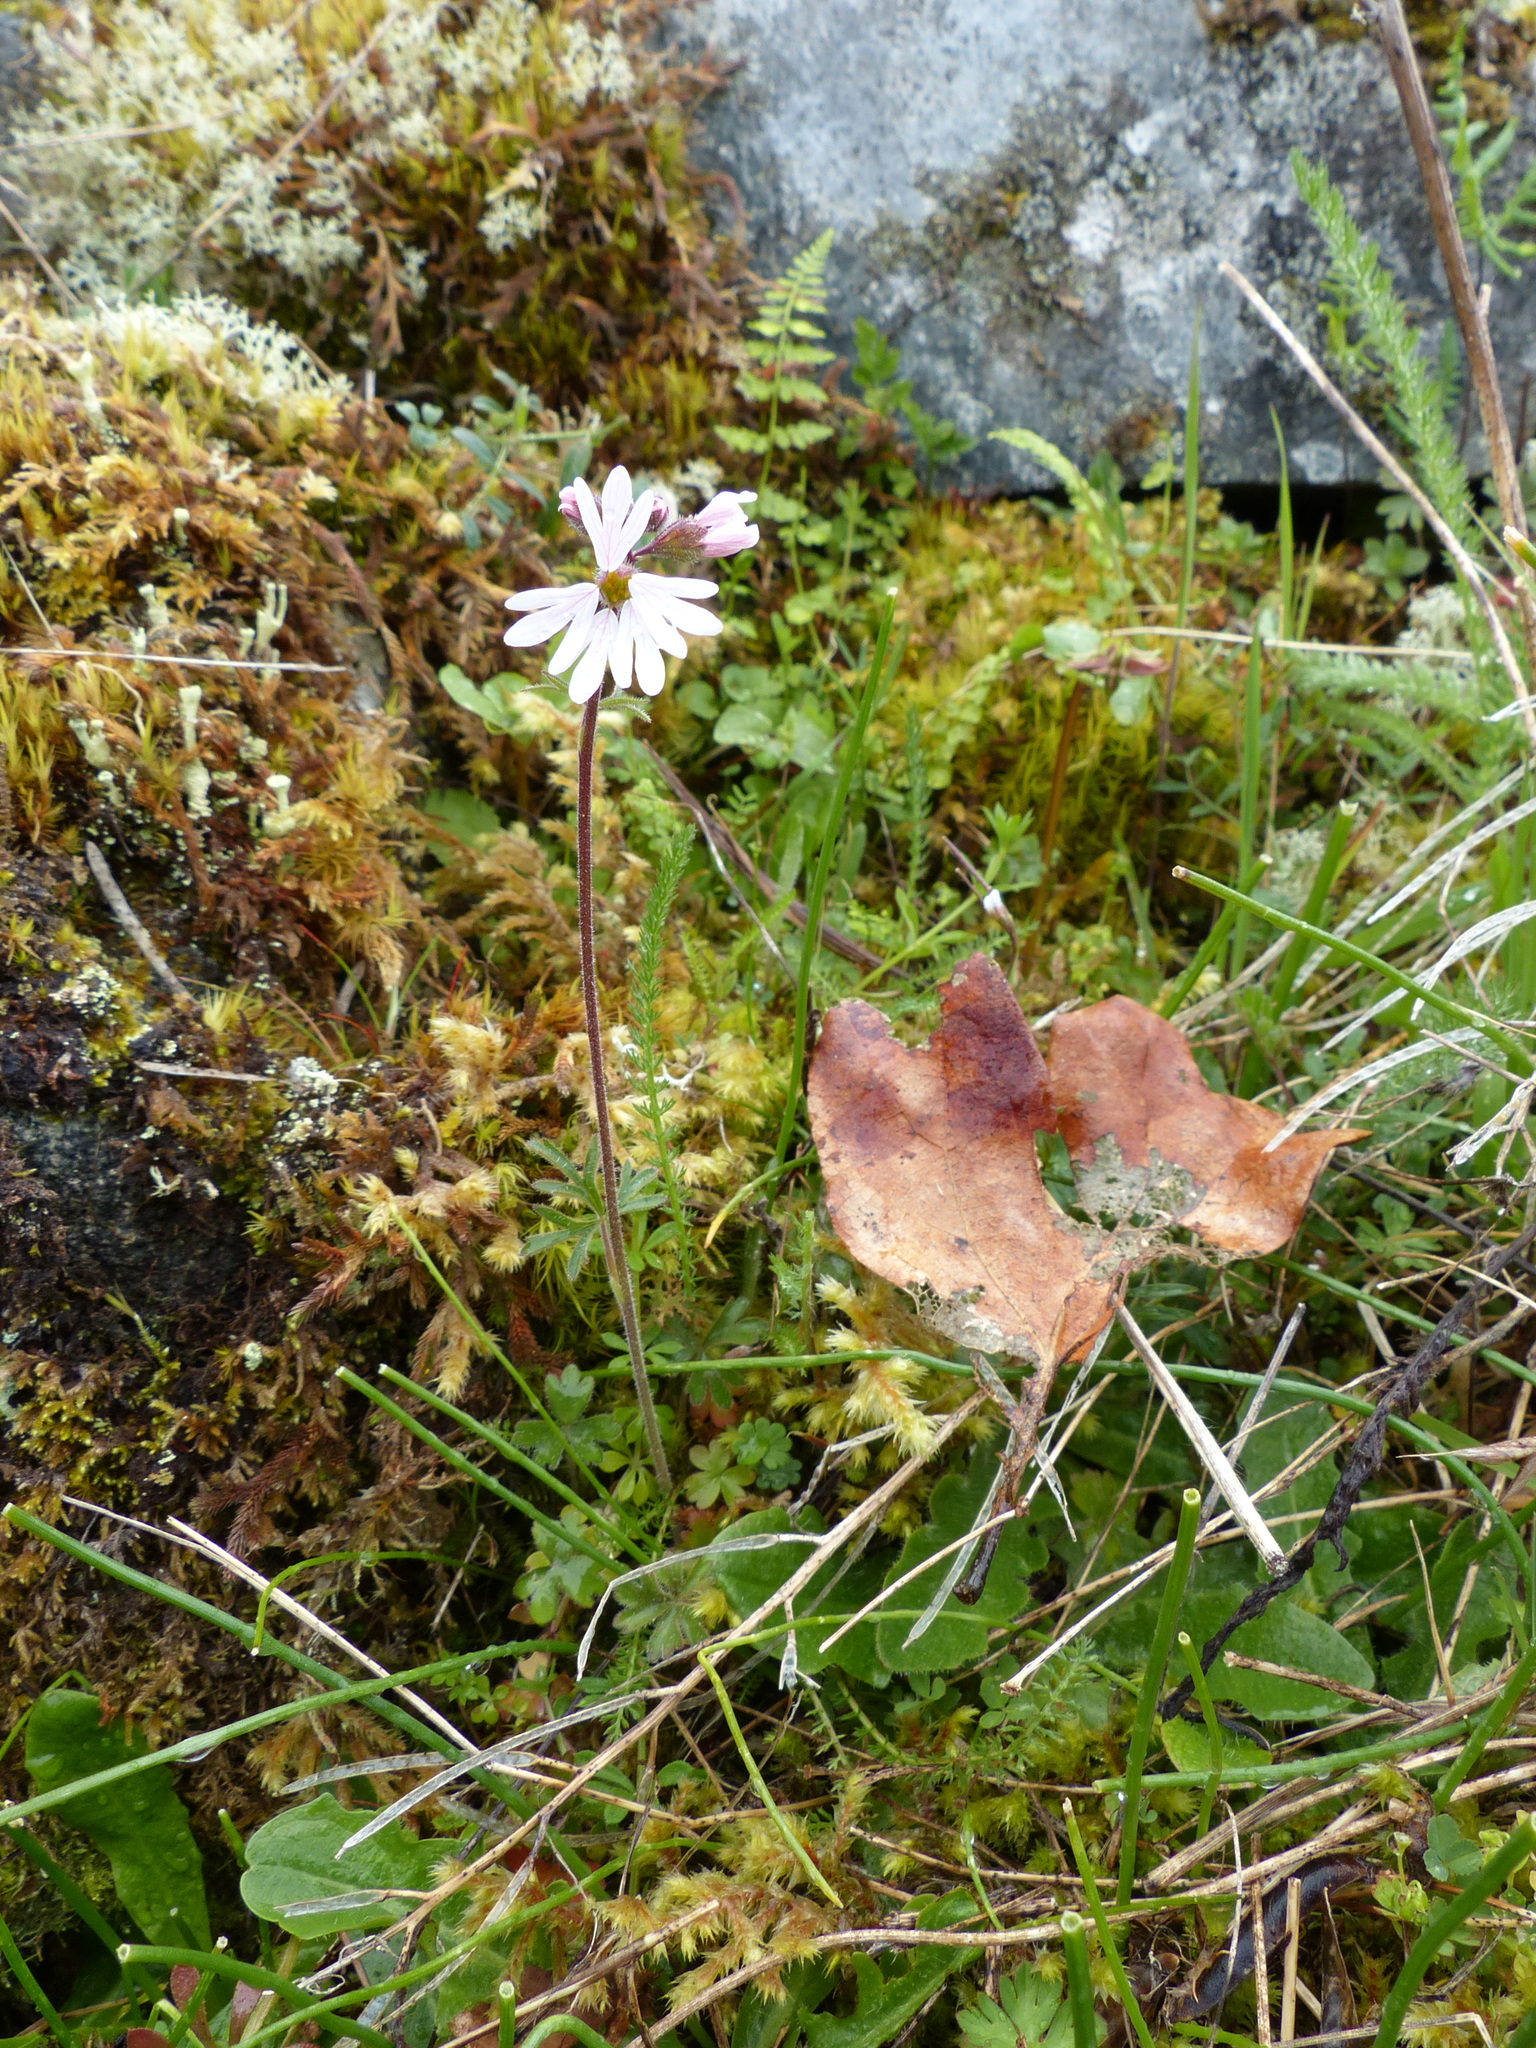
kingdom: Plantae
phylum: Tracheophyta
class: Magnoliopsida
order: Saxifragales
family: Saxifragaceae
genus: Lithophragma
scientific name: Lithophragma parviflorum
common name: Small-flowered fringe-cup
